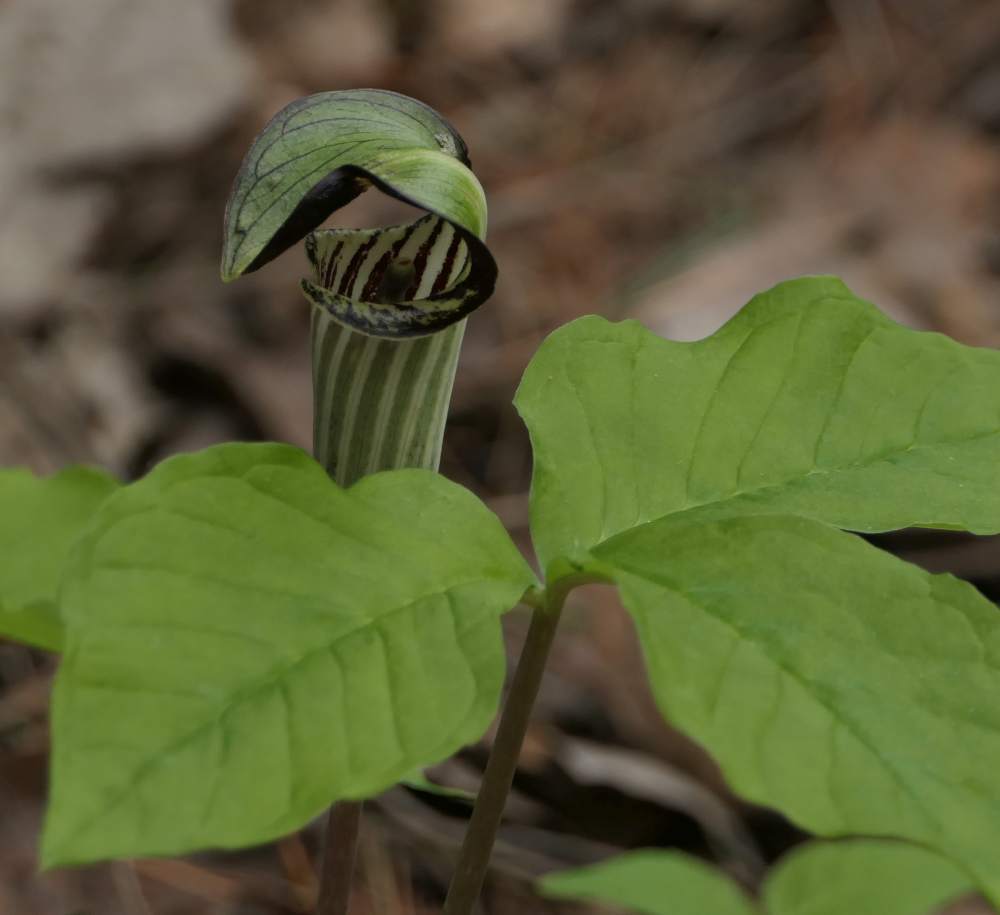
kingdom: Plantae
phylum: Tracheophyta
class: Liliopsida
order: Alismatales
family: Araceae
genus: Arisaema
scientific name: Arisaema triphyllum
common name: Jack-in-the-pulpit
